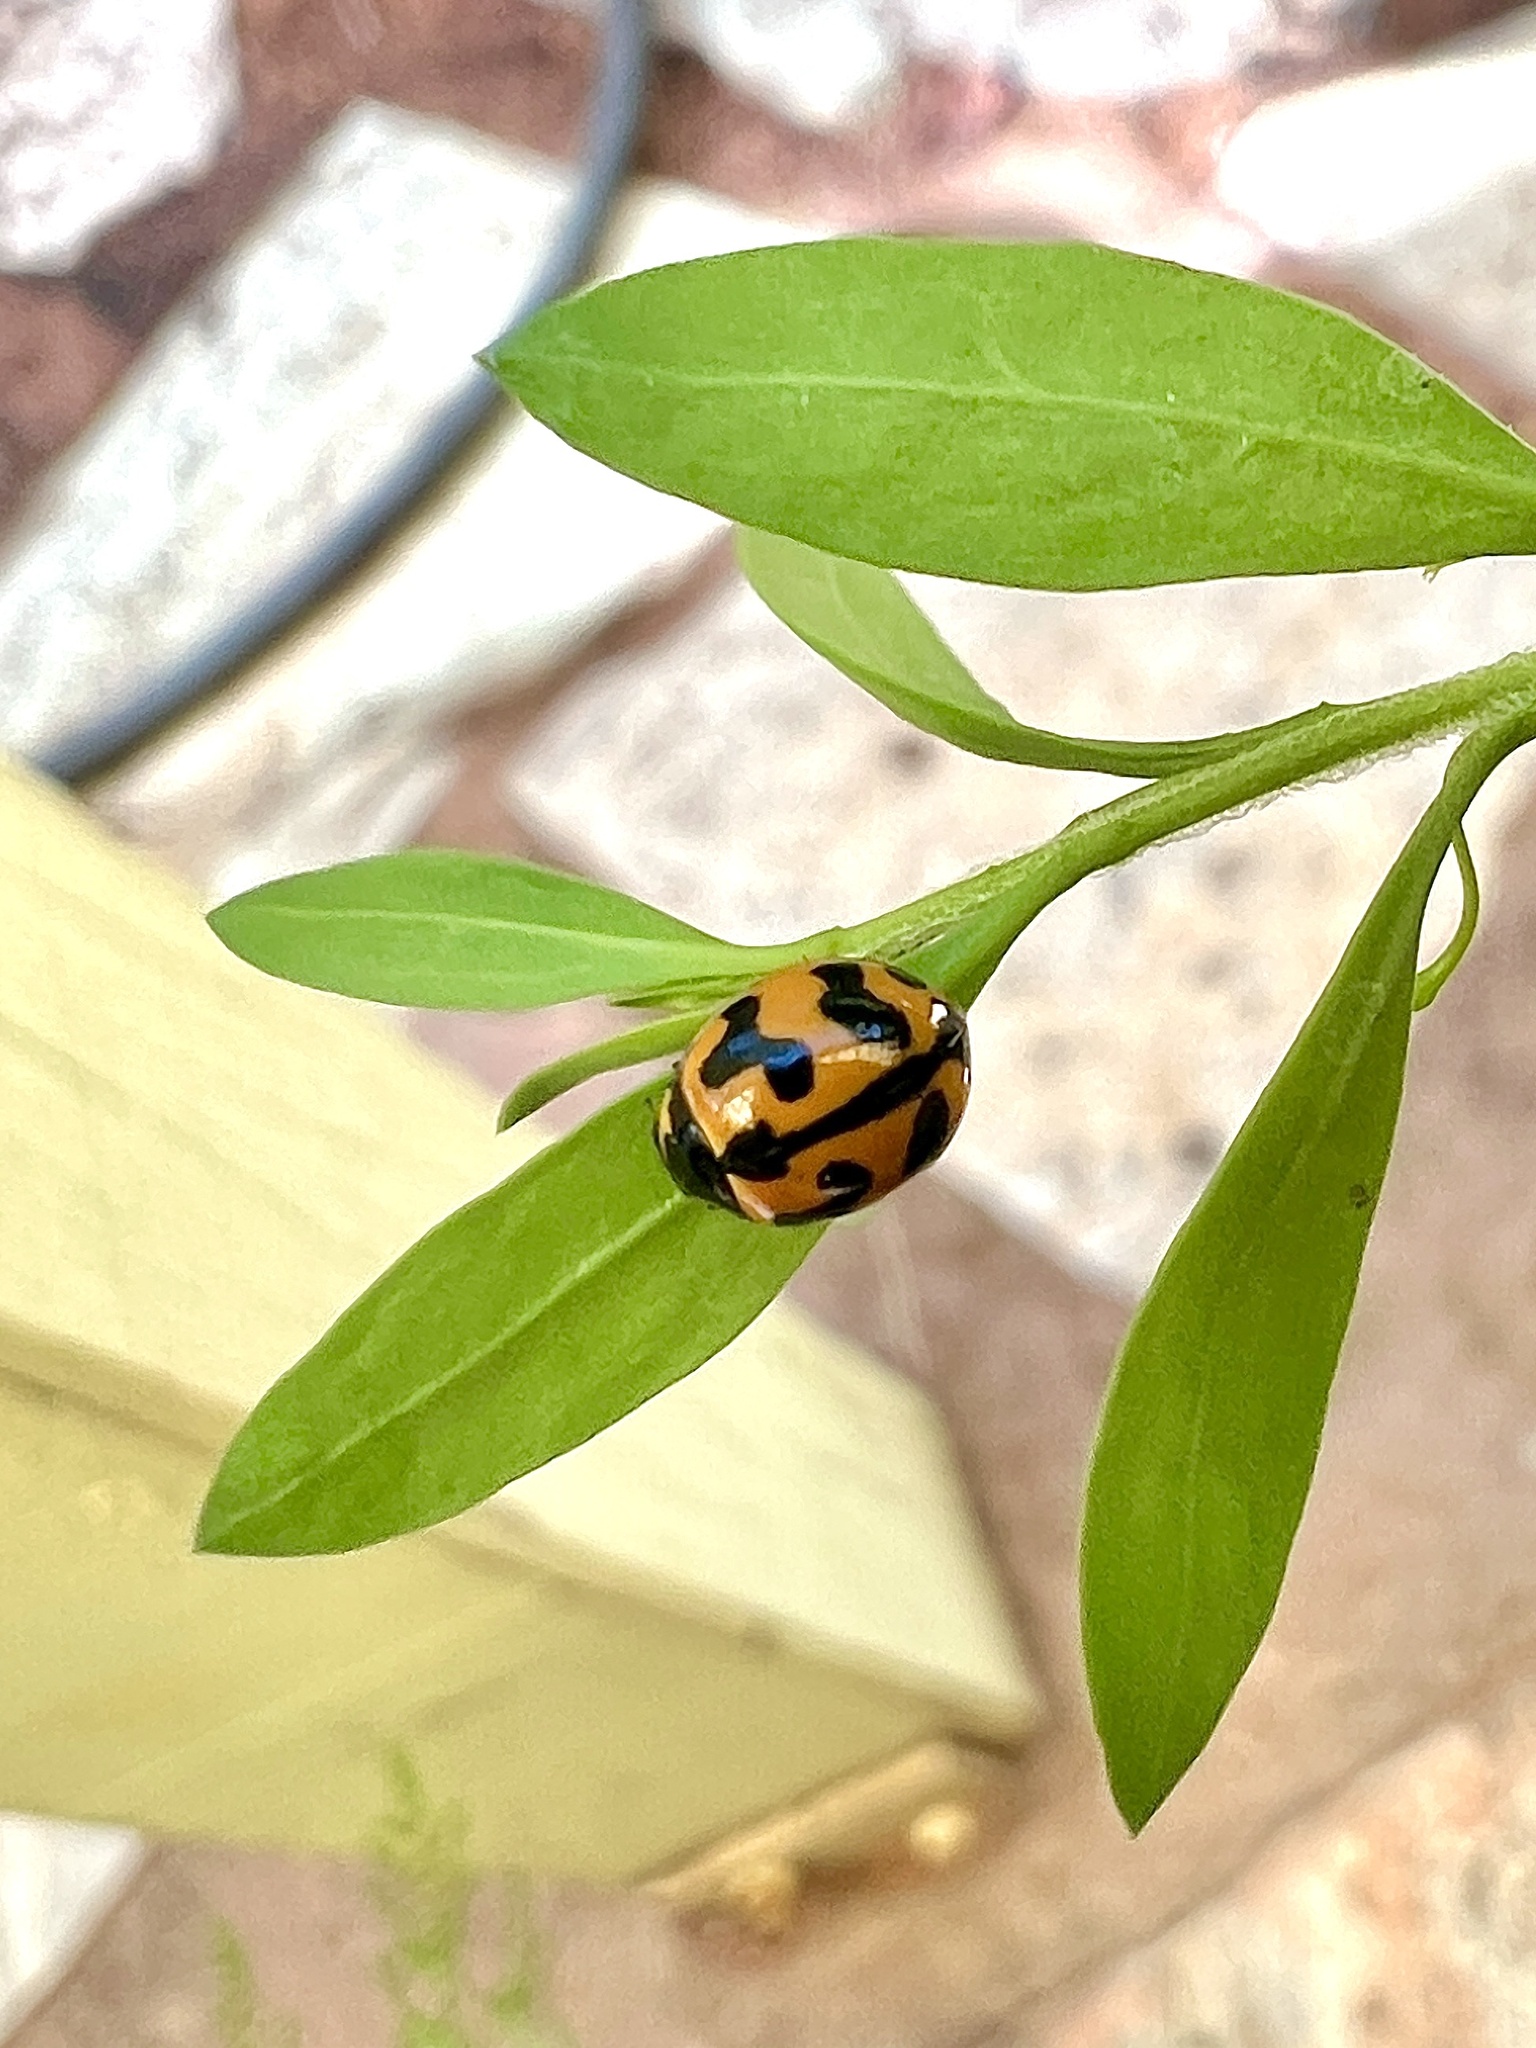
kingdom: Animalia
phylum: Arthropoda
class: Insecta
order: Coleoptera
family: Coccinellidae
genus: Coccinella
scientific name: Coccinella transversalis
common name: Transverse lady beetle
